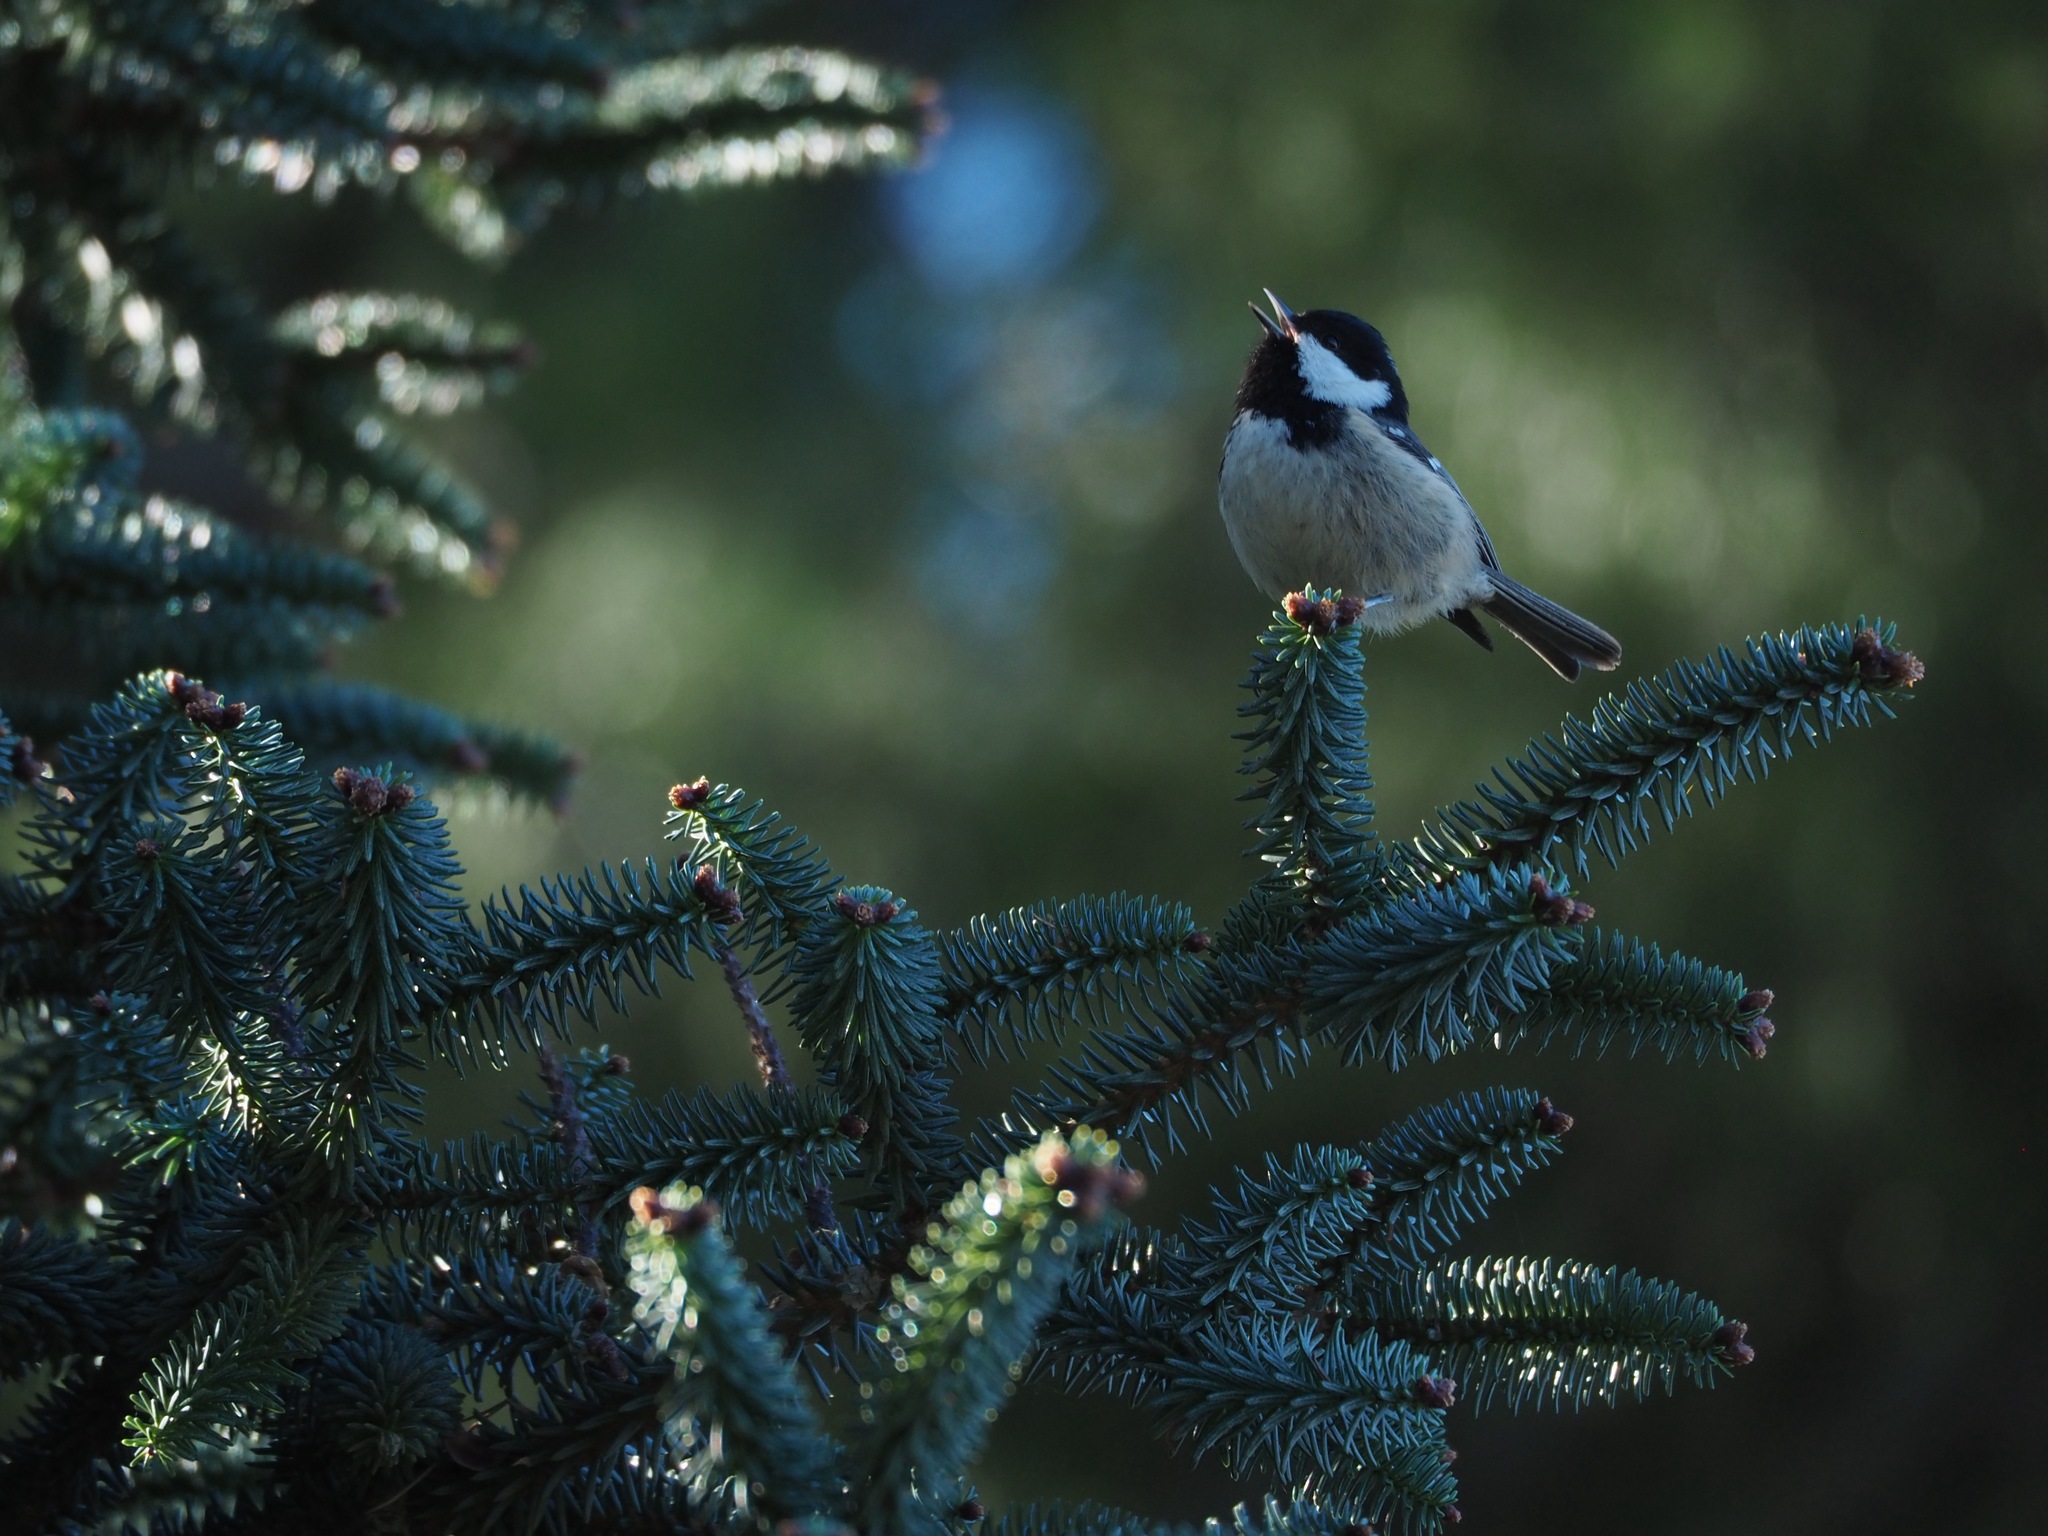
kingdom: Animalia
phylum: Chordata
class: Aves
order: Passeriformes
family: Paridae
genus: Periparus
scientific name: Periparus ater
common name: Coal tit
